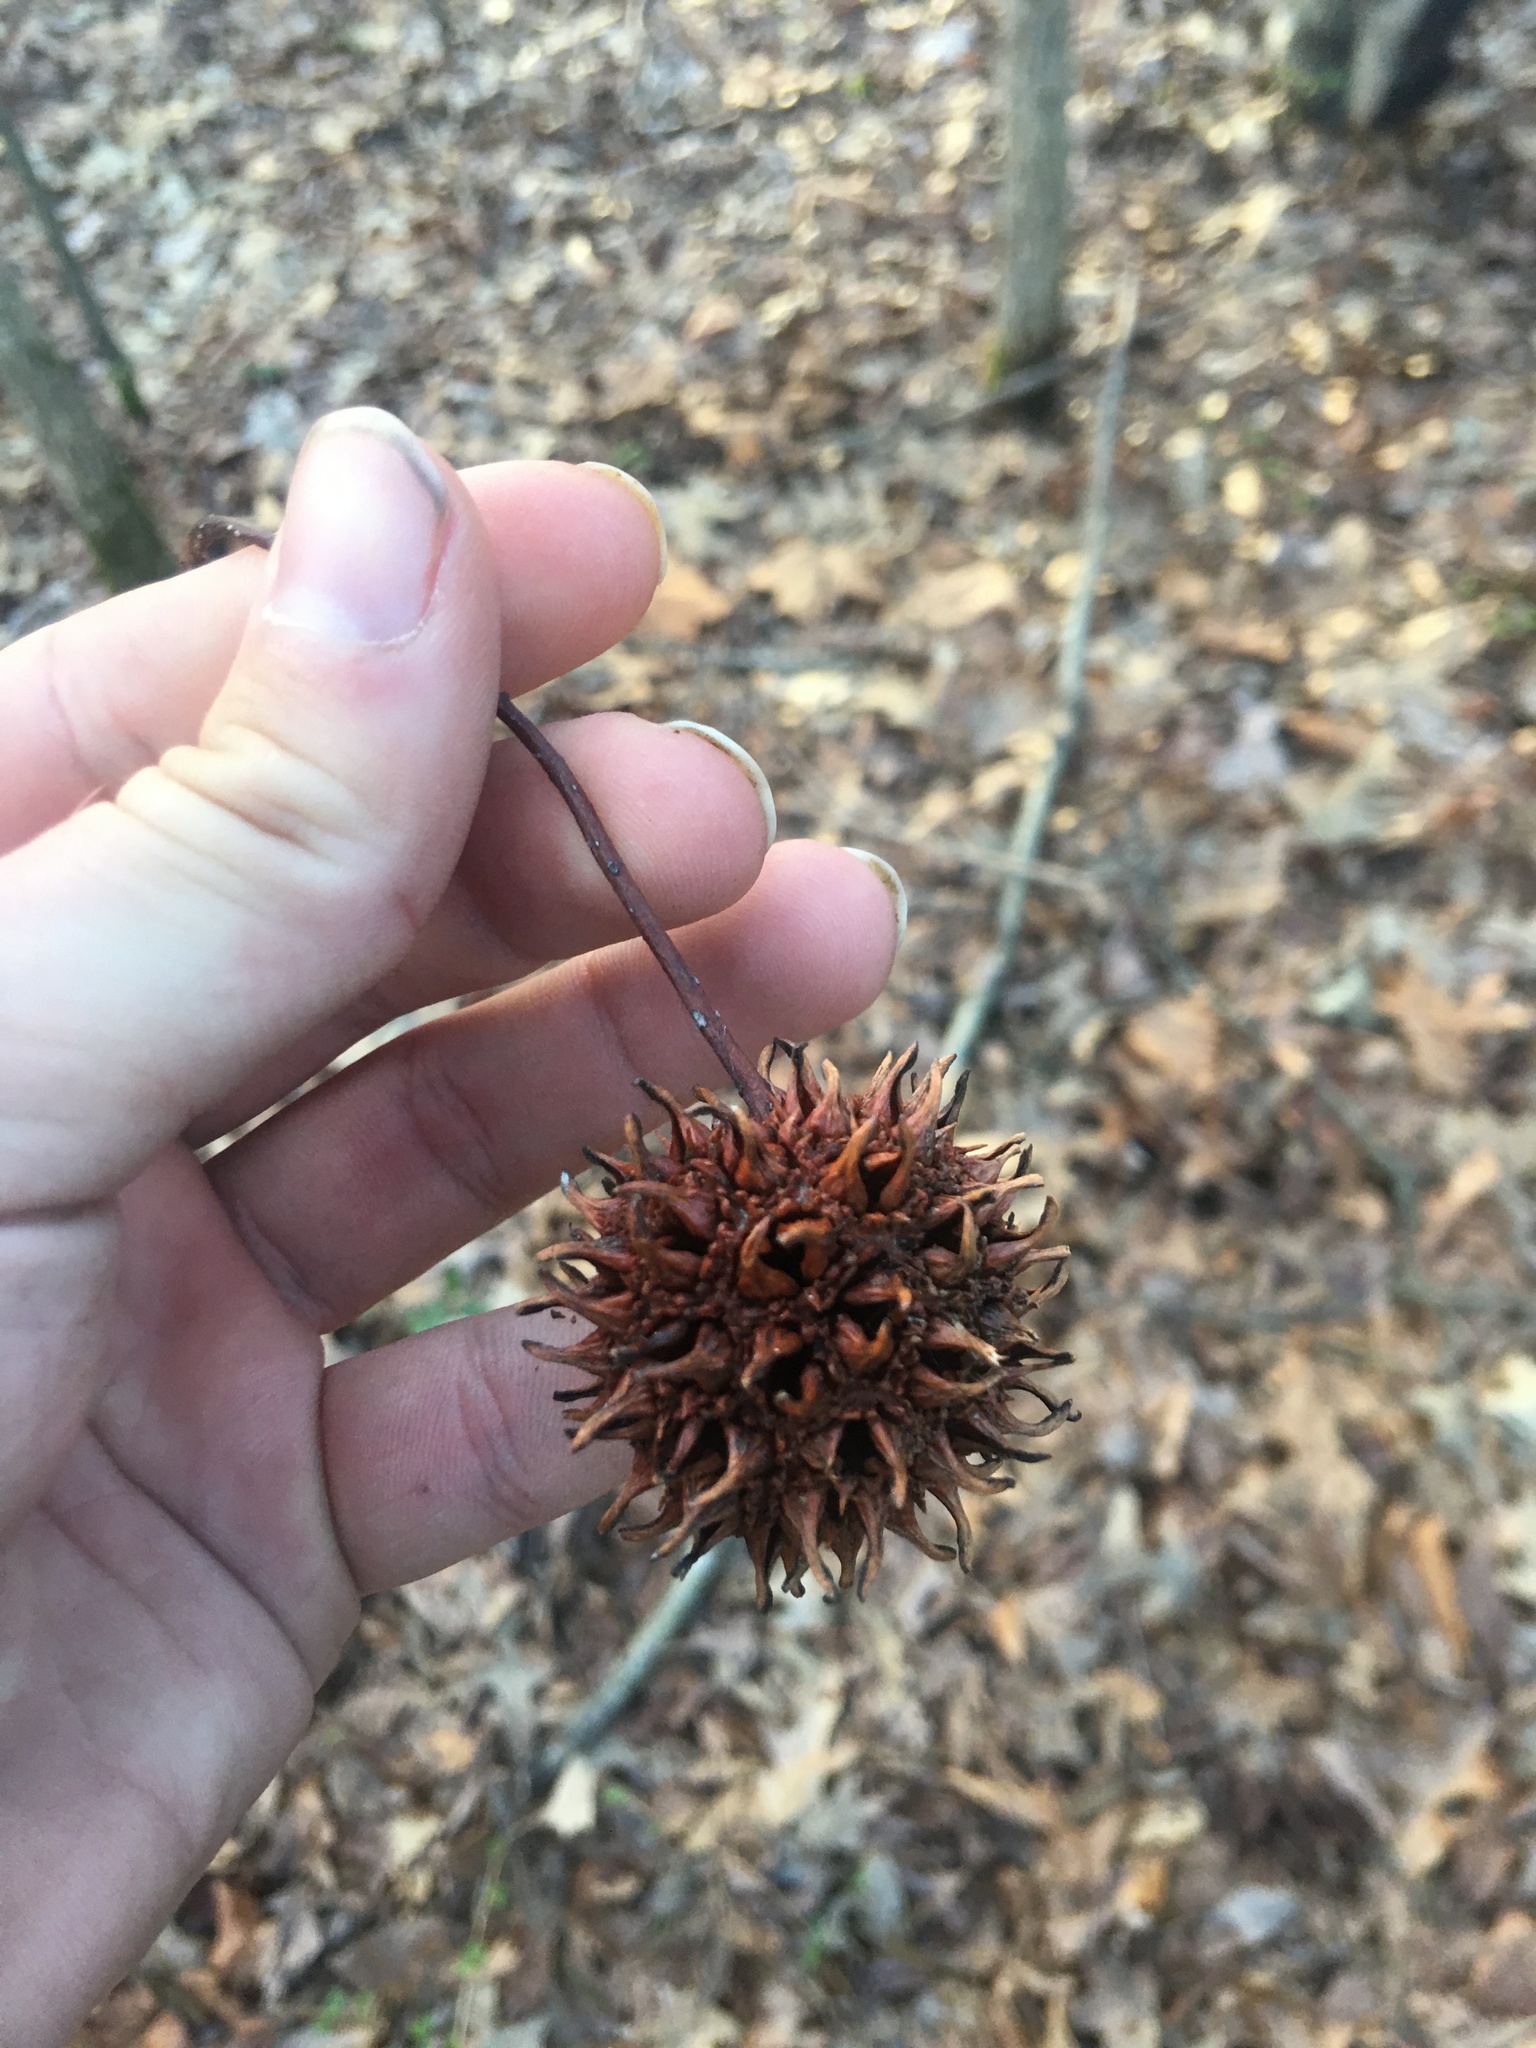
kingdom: Plantae
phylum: Tracheophyta
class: Magnoliopsida
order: Saxifragales
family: Altingiaceae
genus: Liquidambar
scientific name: Liquidambar styraciflua
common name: Sweet gum
